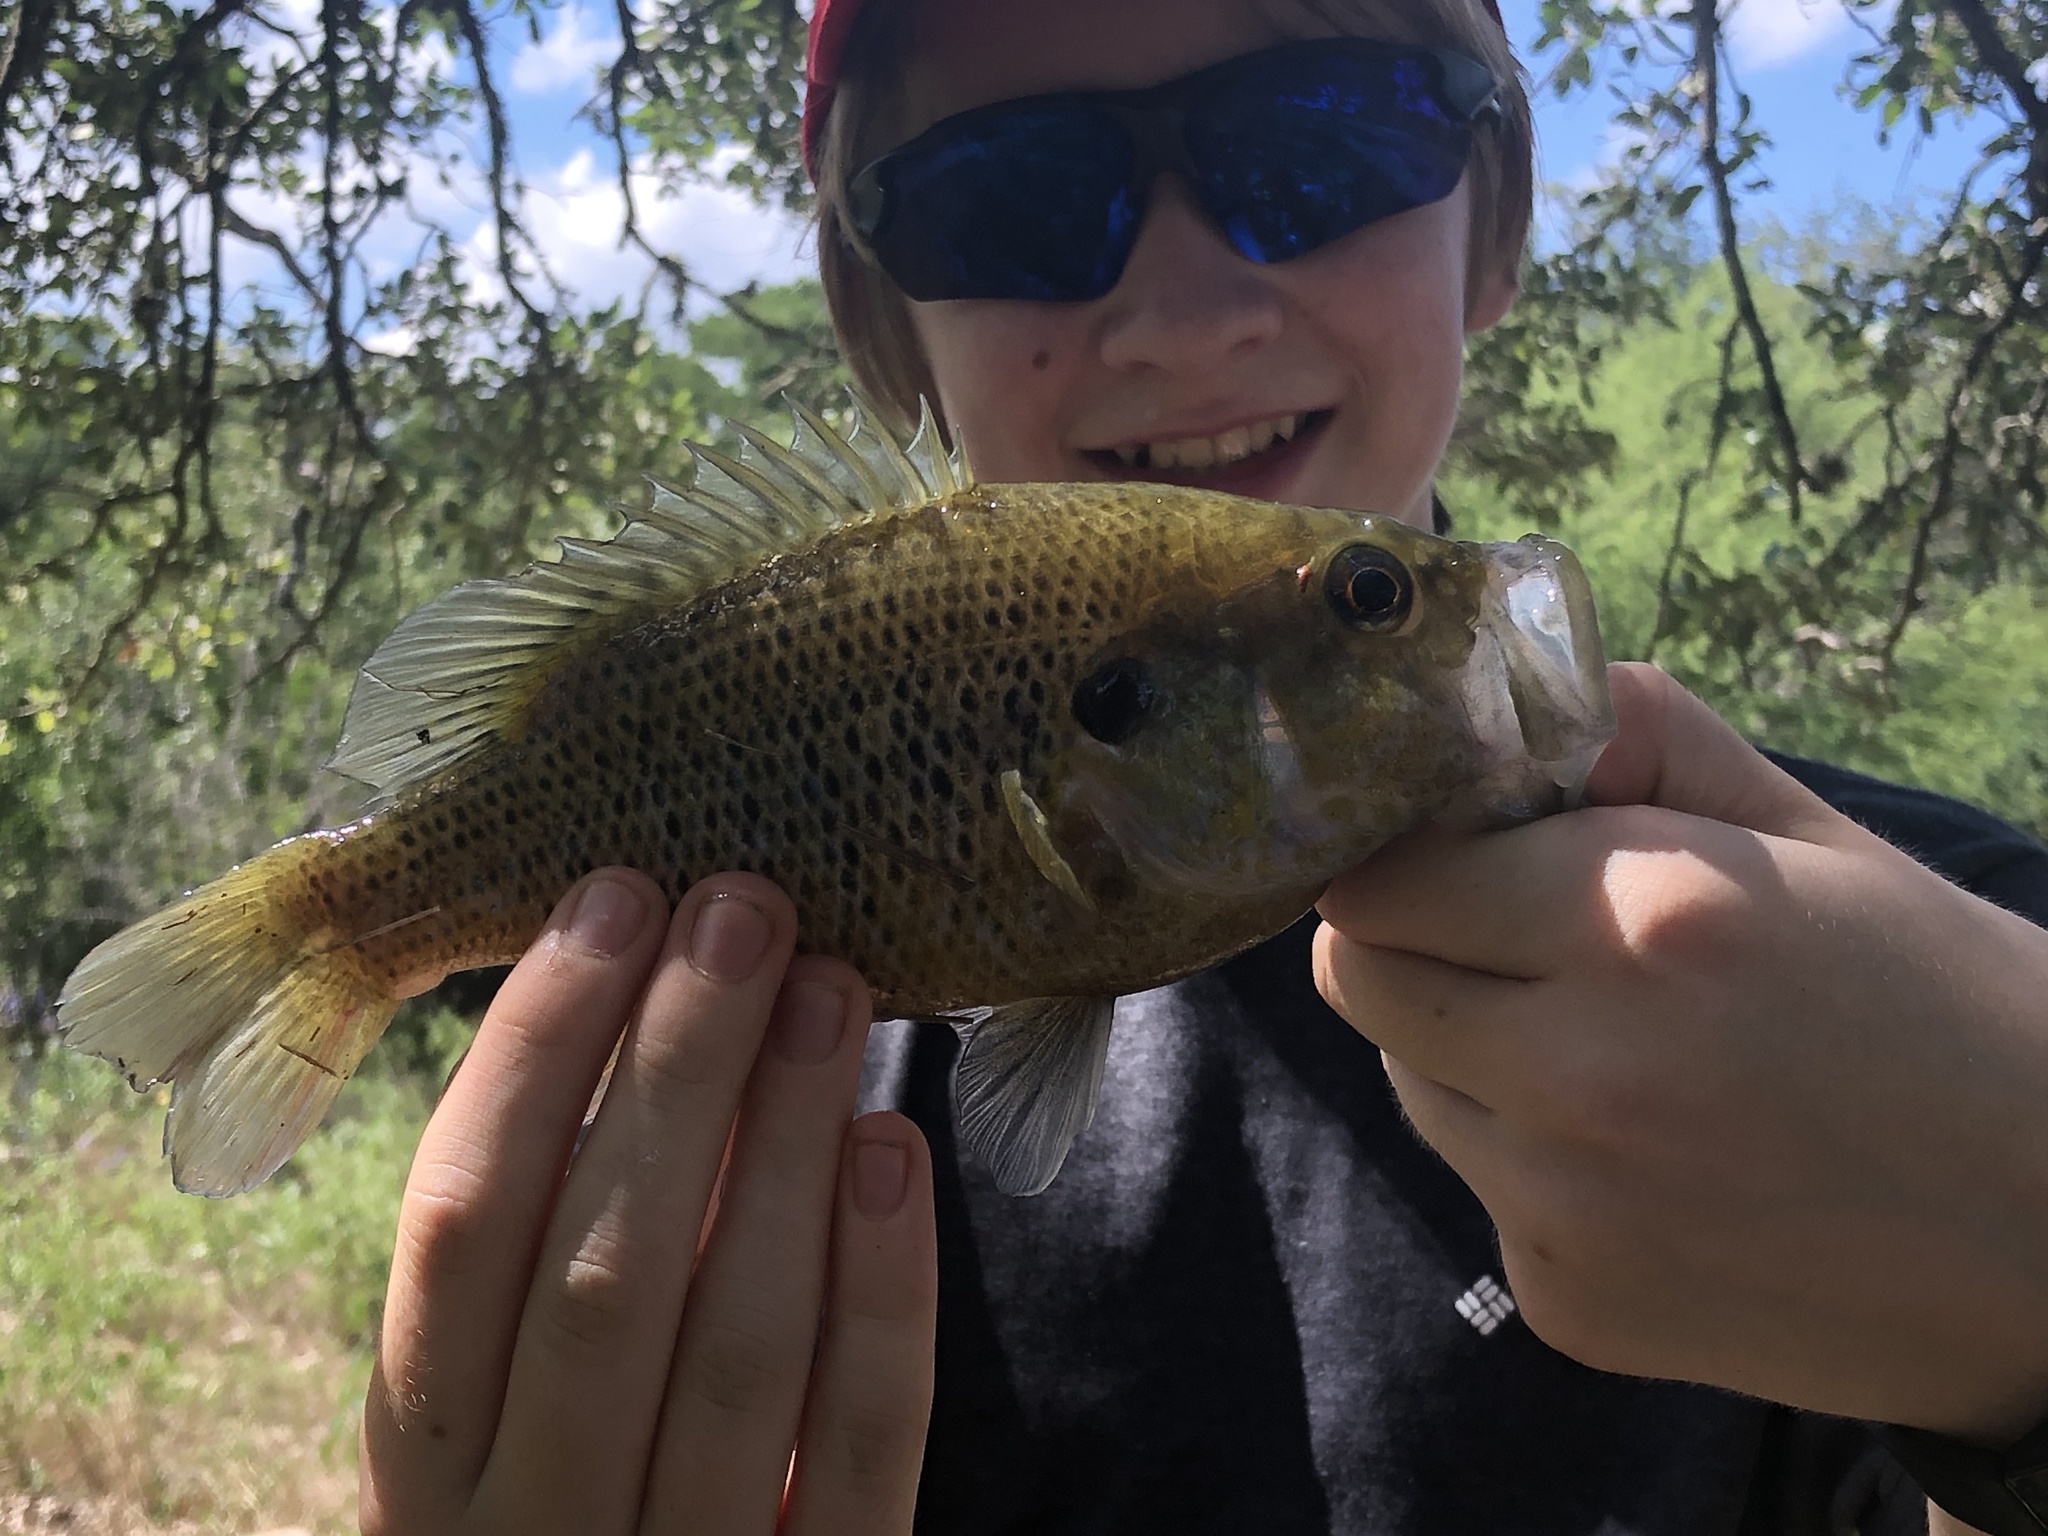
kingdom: Animalia
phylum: Chordata
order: Perciformes
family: Centrarchidae
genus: Lepomis
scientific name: Lepomis gulosus
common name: Warmouth
